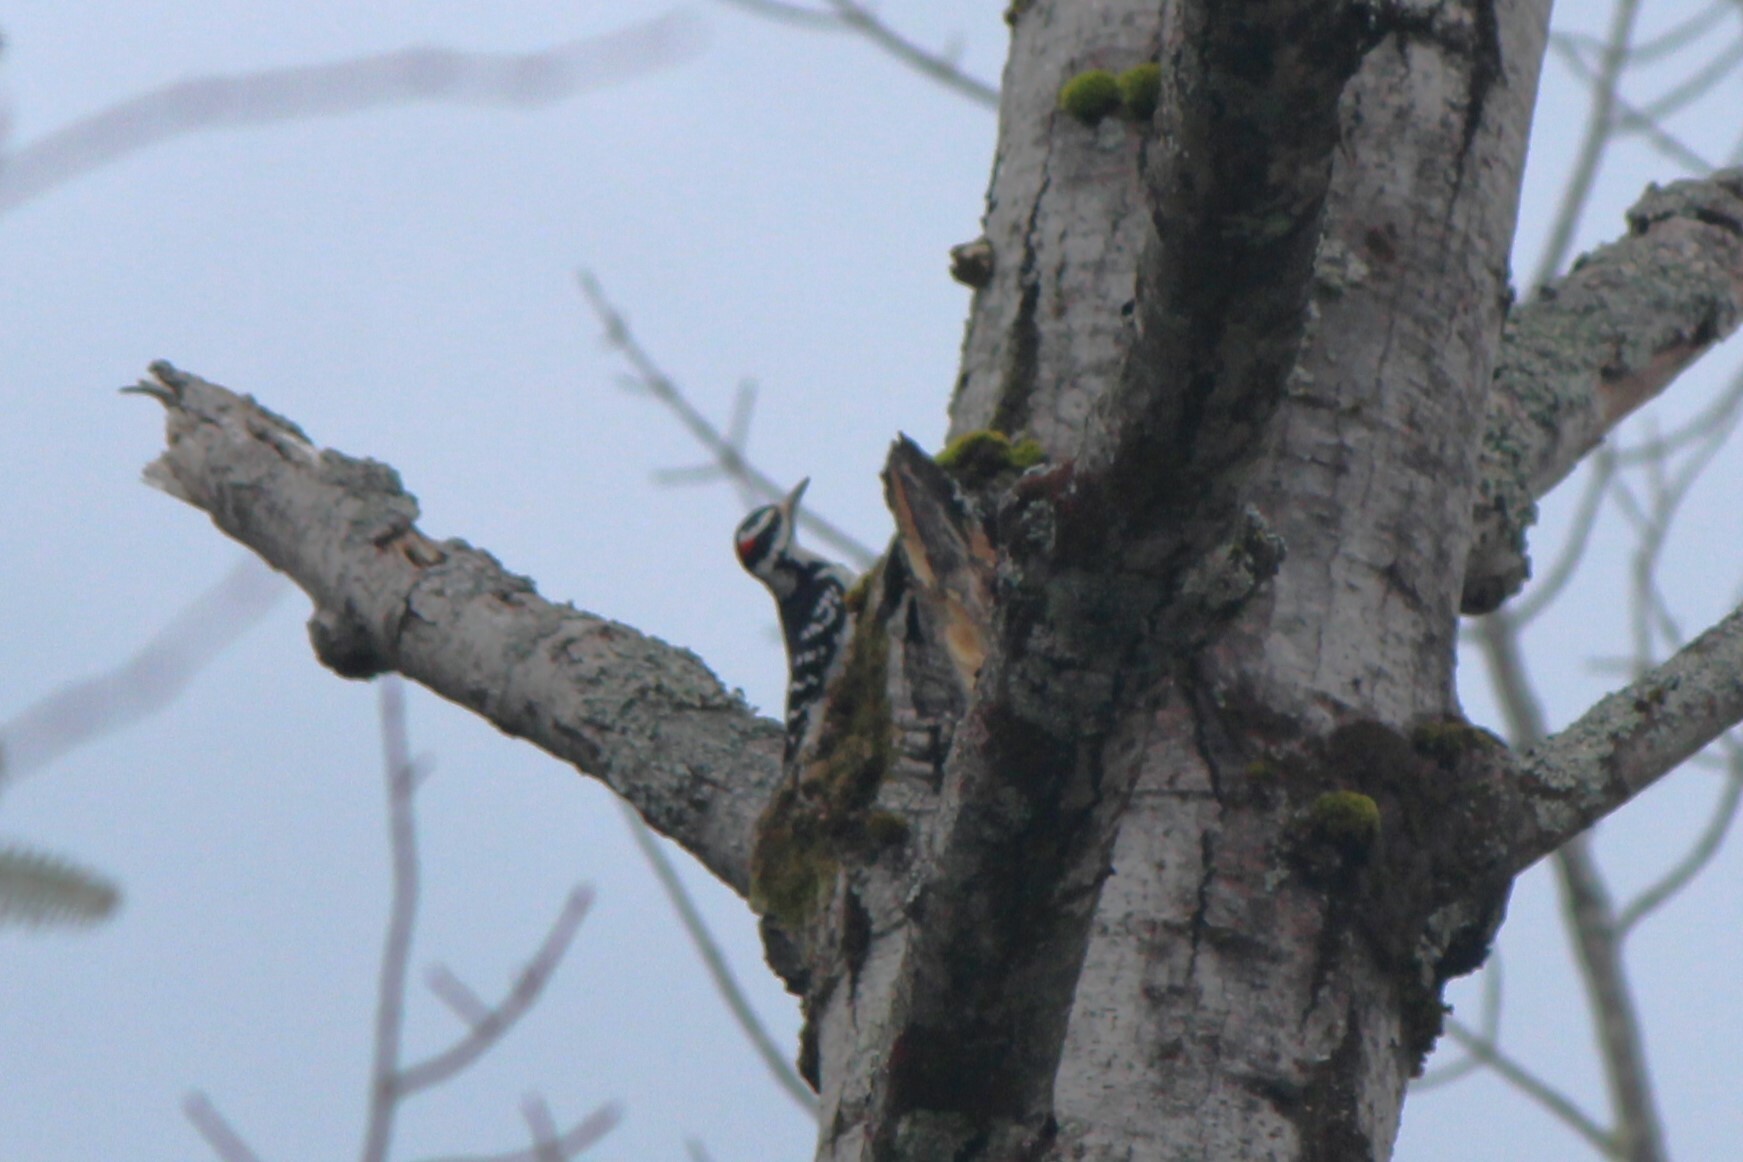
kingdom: Animalia
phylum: Chordata
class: Aves
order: Piciformes
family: Picidae
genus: Leuconotopicus
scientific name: Leuconotopicus villosus
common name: Hairy woodpecker
